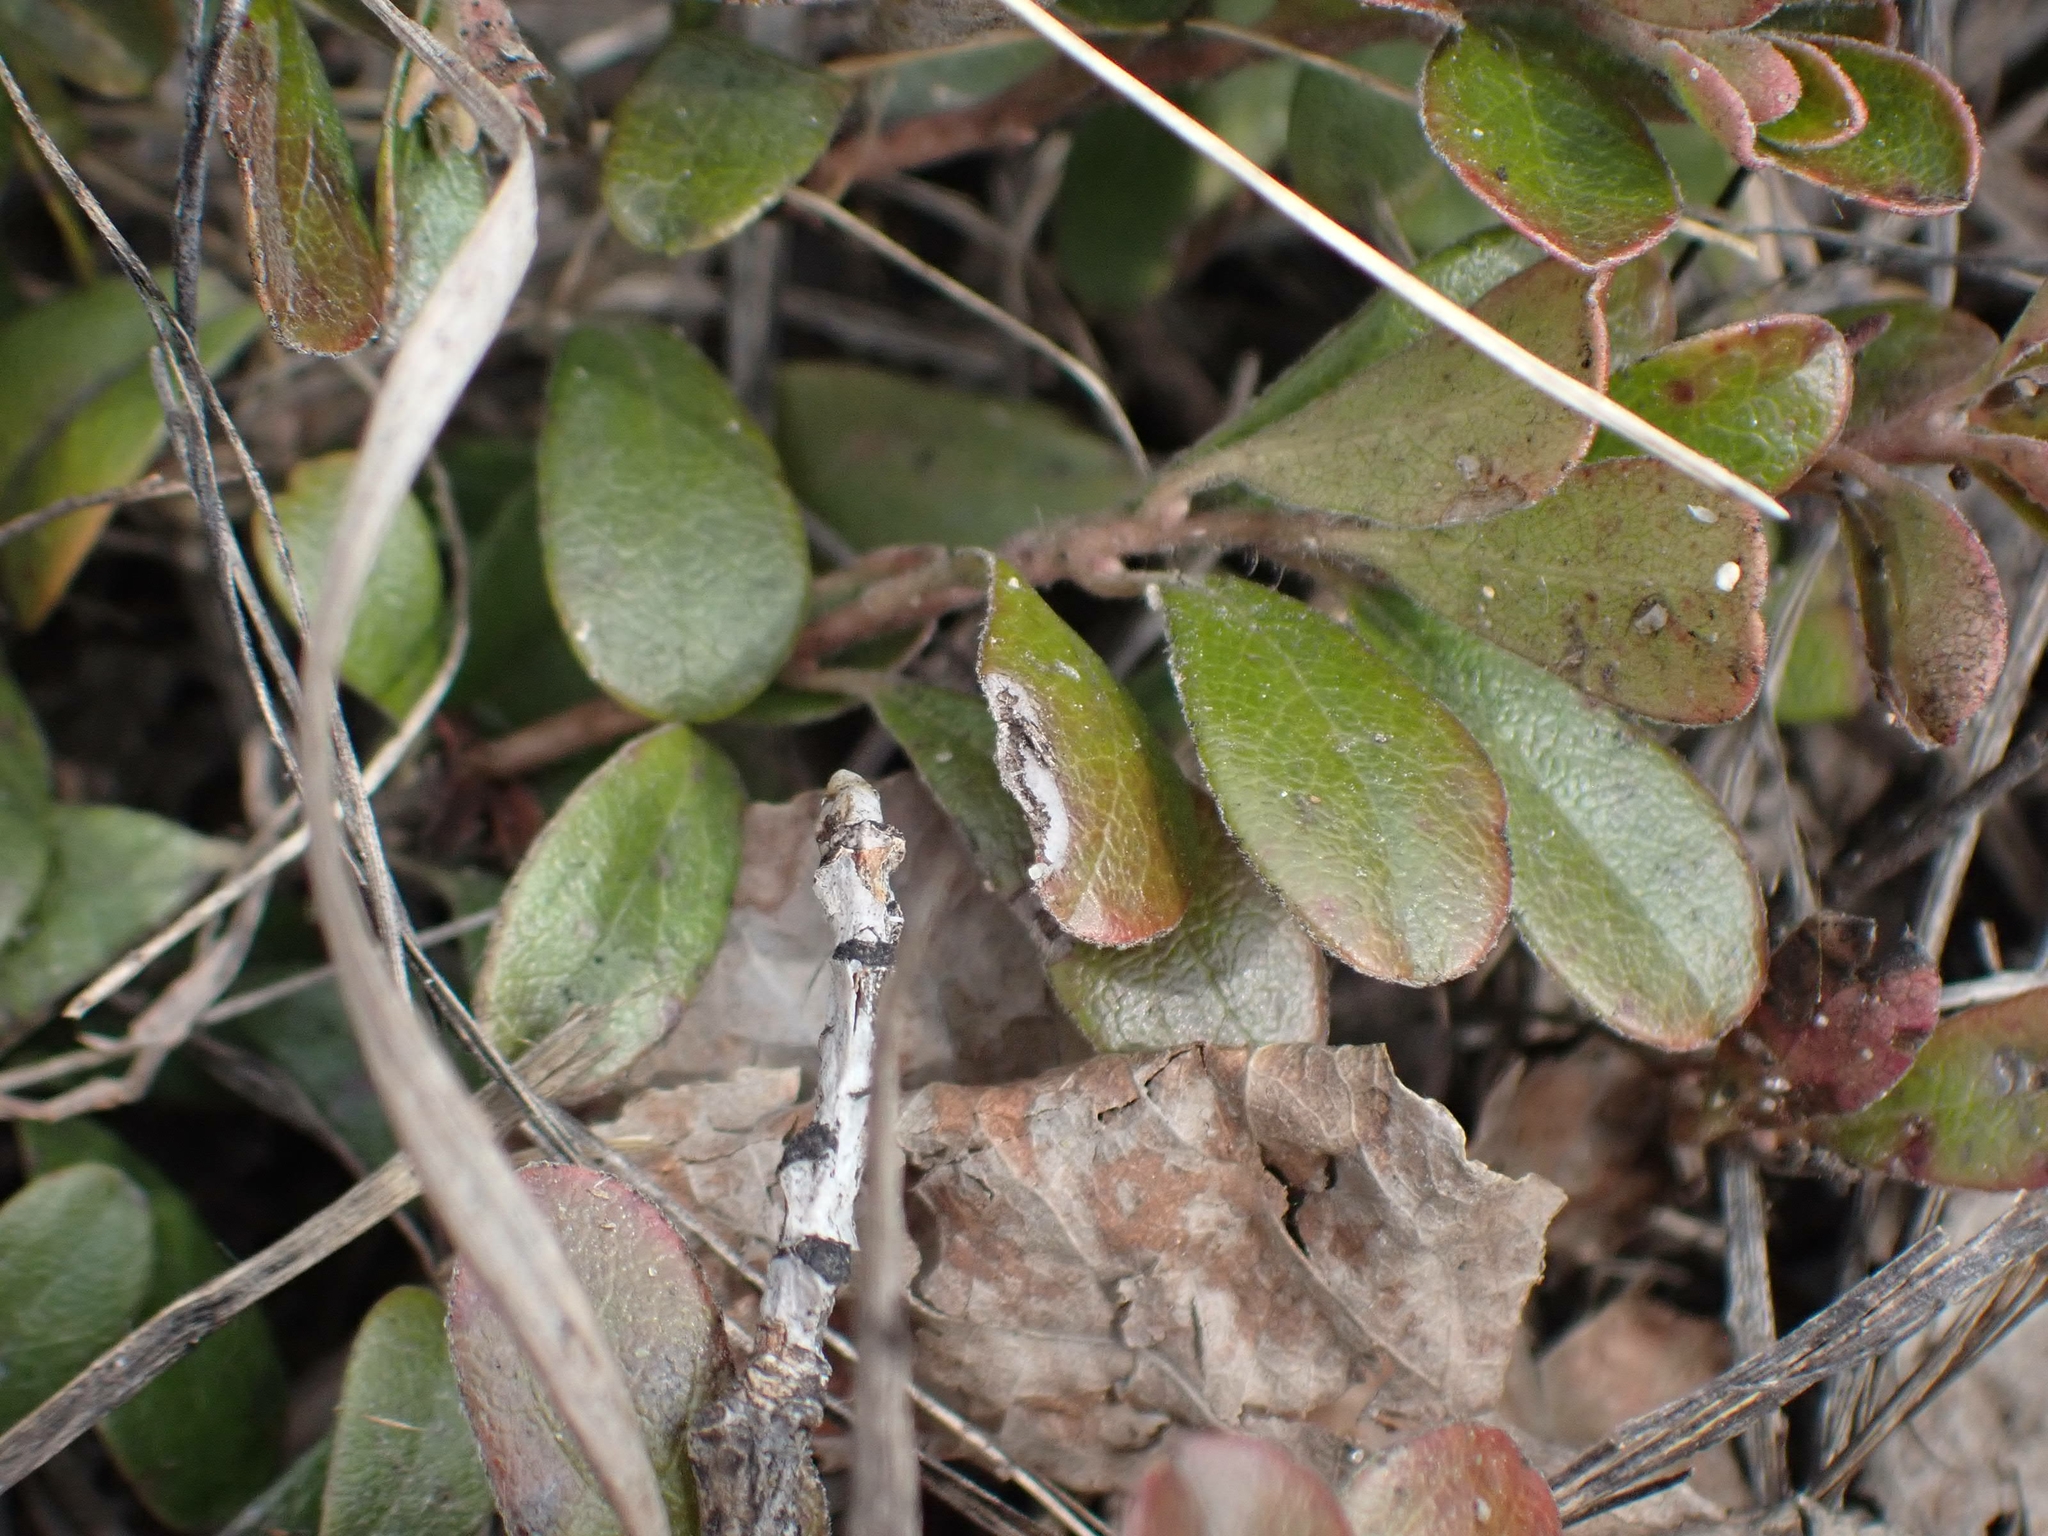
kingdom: Plantae
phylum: Tracheophyta
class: Magnoliopsida
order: Ericales
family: Ericaceae
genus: Arctostaphylos
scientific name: Arctostaphylos uva-ursi
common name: Bearberry
